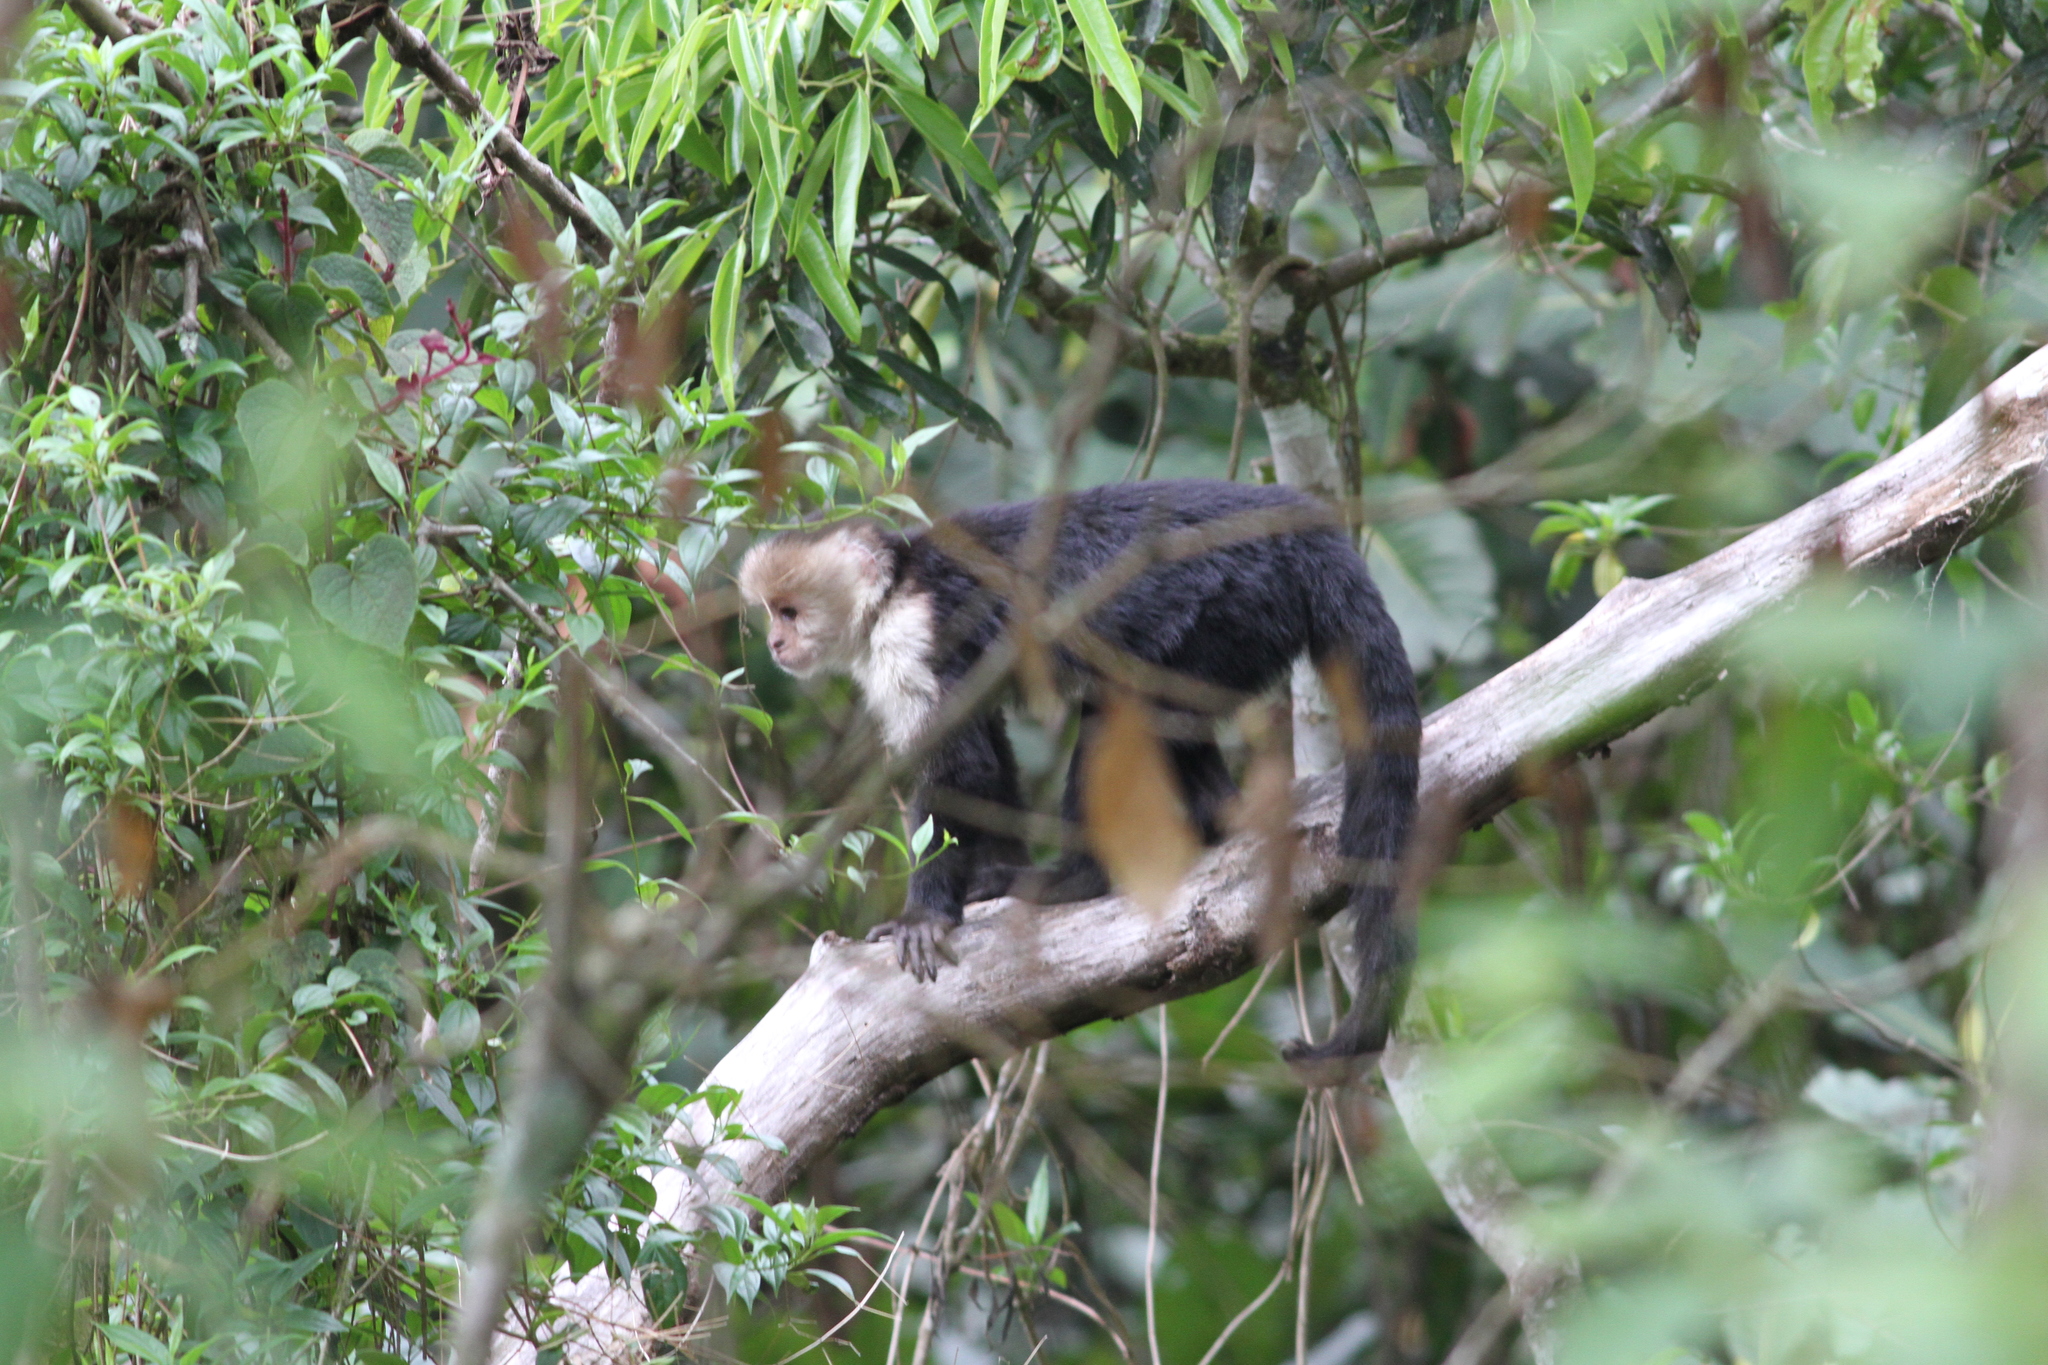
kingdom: Animalia
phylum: Chordata
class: Mammalia
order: Primates
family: Cebidae
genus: Cebus
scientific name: Cebus imitator
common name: Panamanian white-faced capuchin
